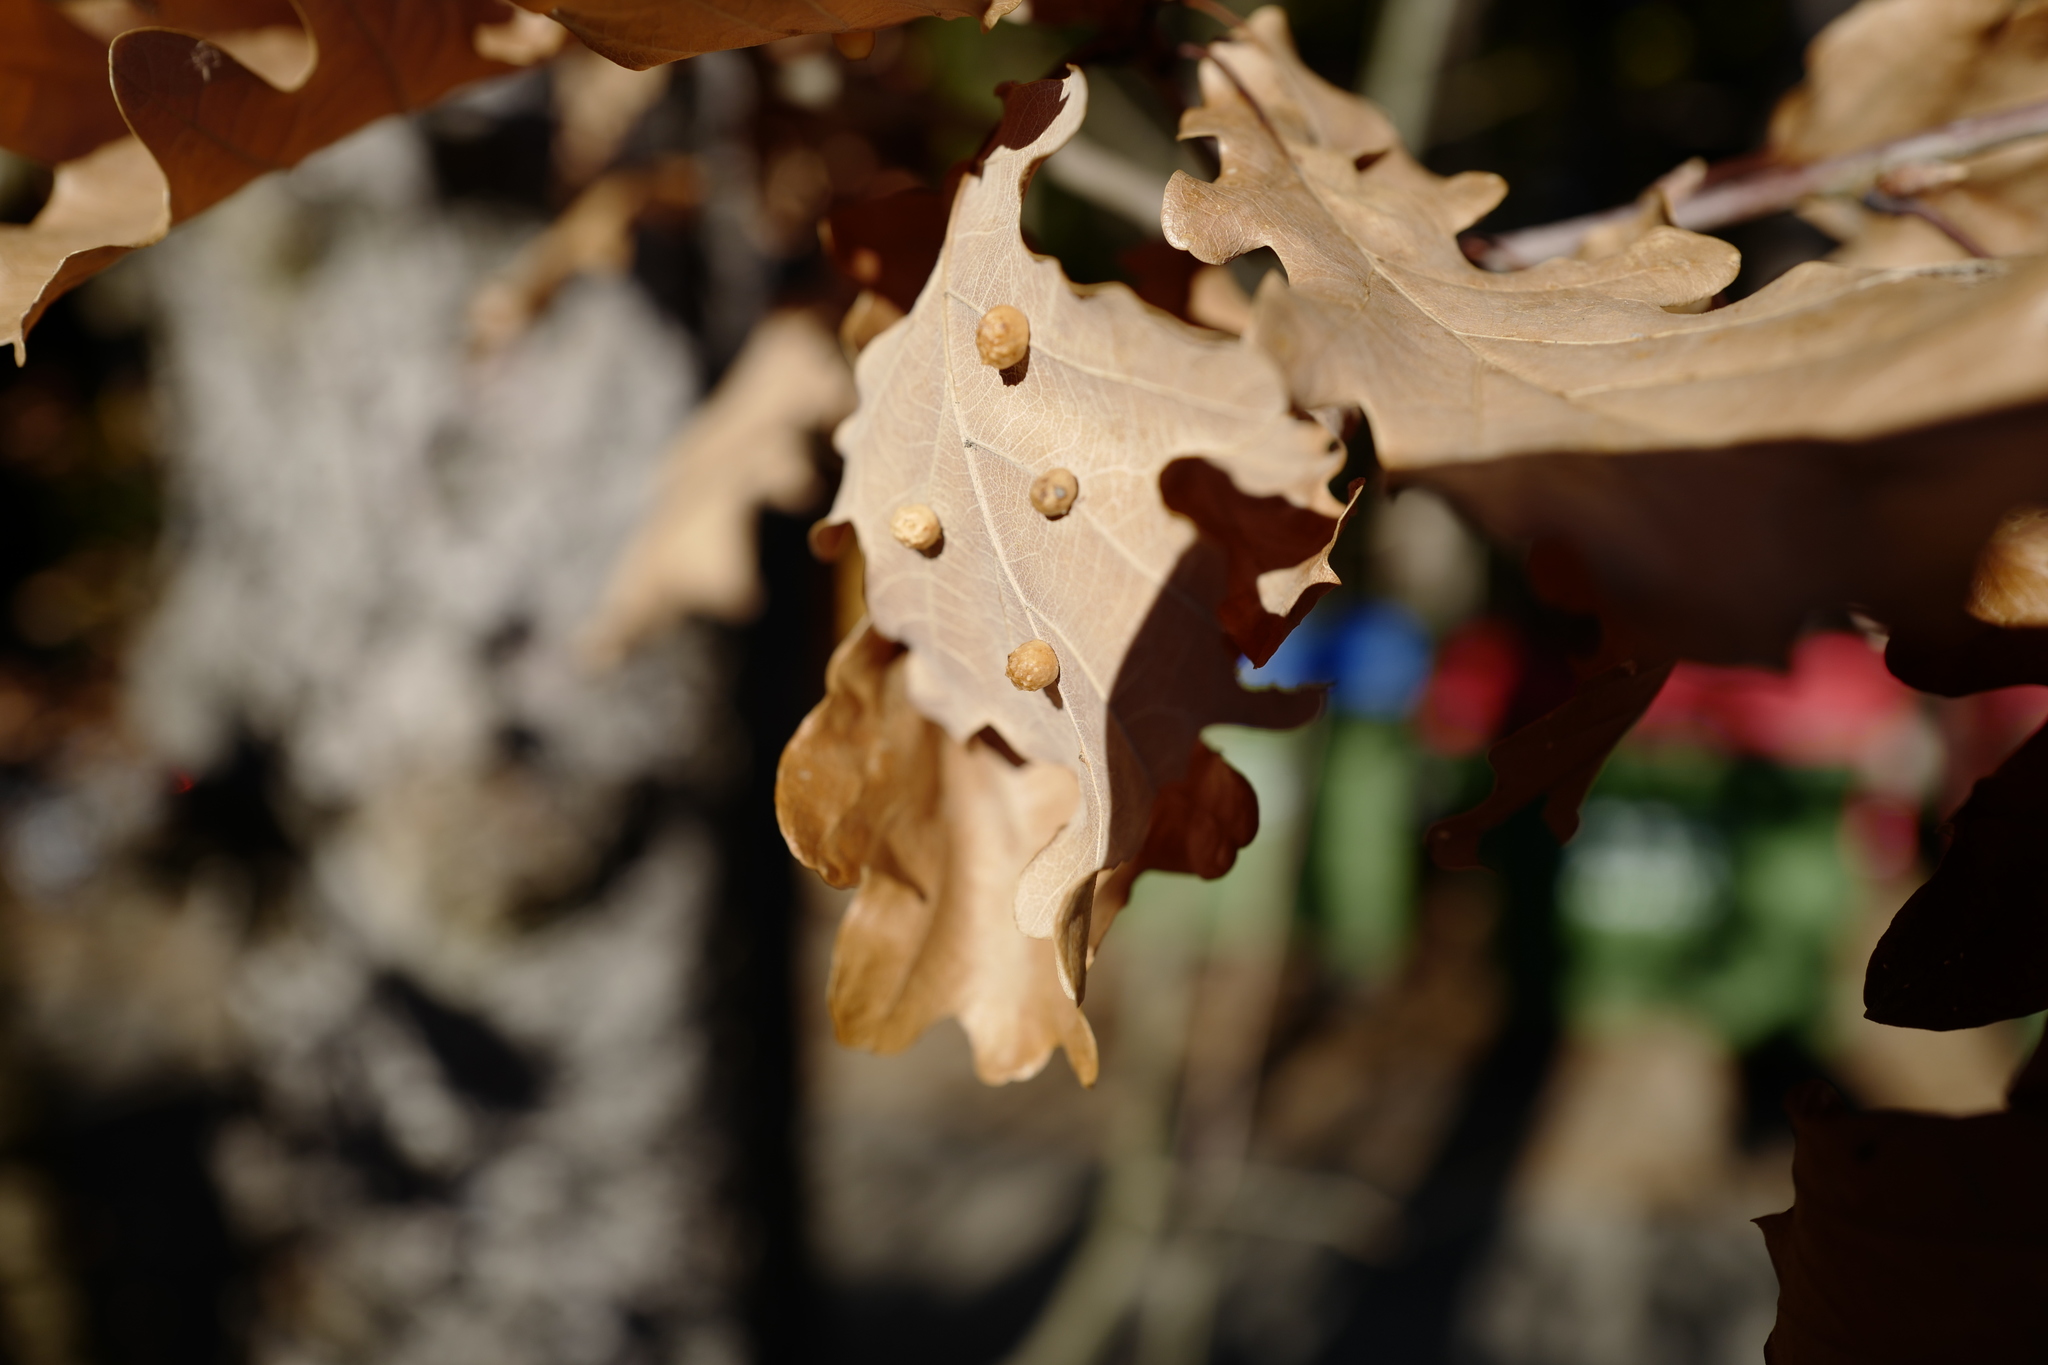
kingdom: Animalia
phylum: Arthropoda
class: Insecta
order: Hymenoptera
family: Cynipidae
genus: Cynips
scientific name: Cynips disticha
